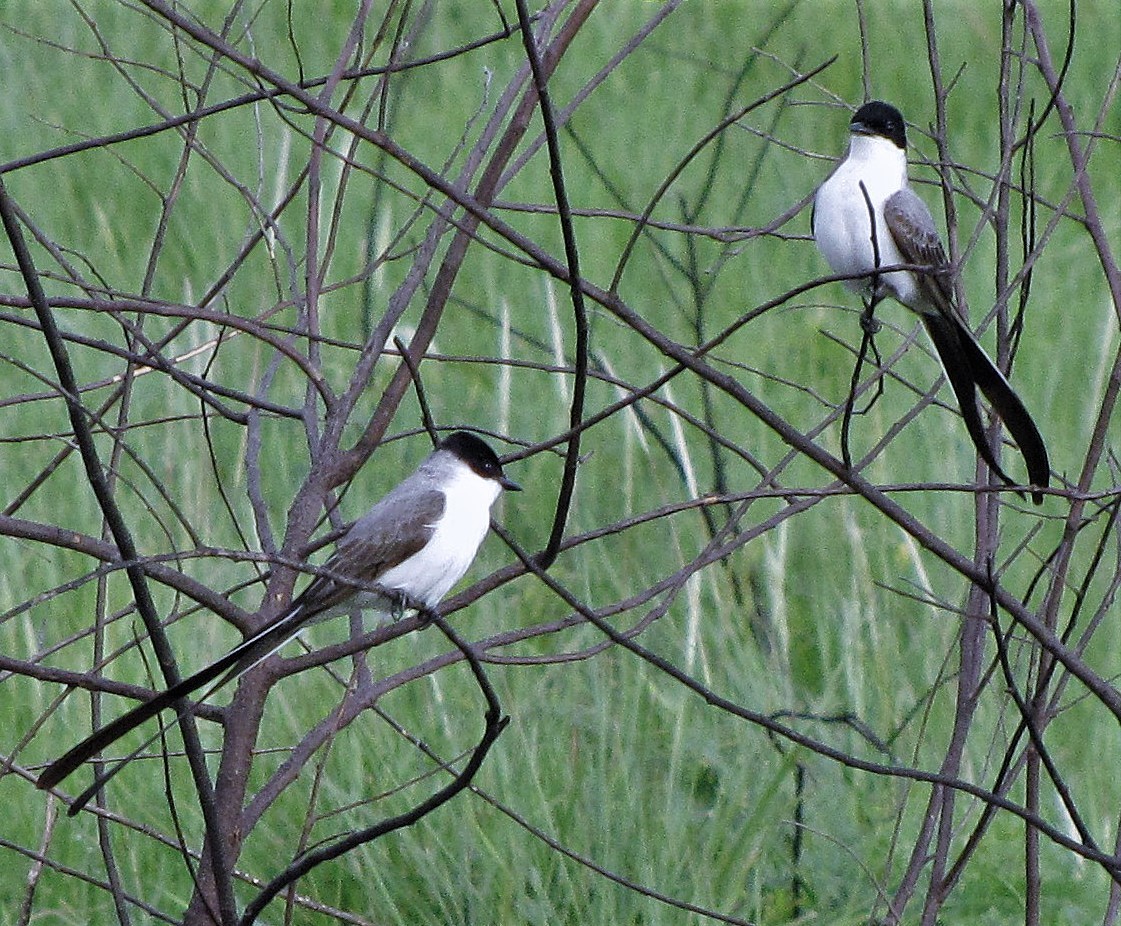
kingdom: Animalia
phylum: Chordata
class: Aves
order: Passeriformes
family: Tyrannidae
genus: Tyrannus
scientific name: Tyrannus savana
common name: Fork-tailed flycatcher
